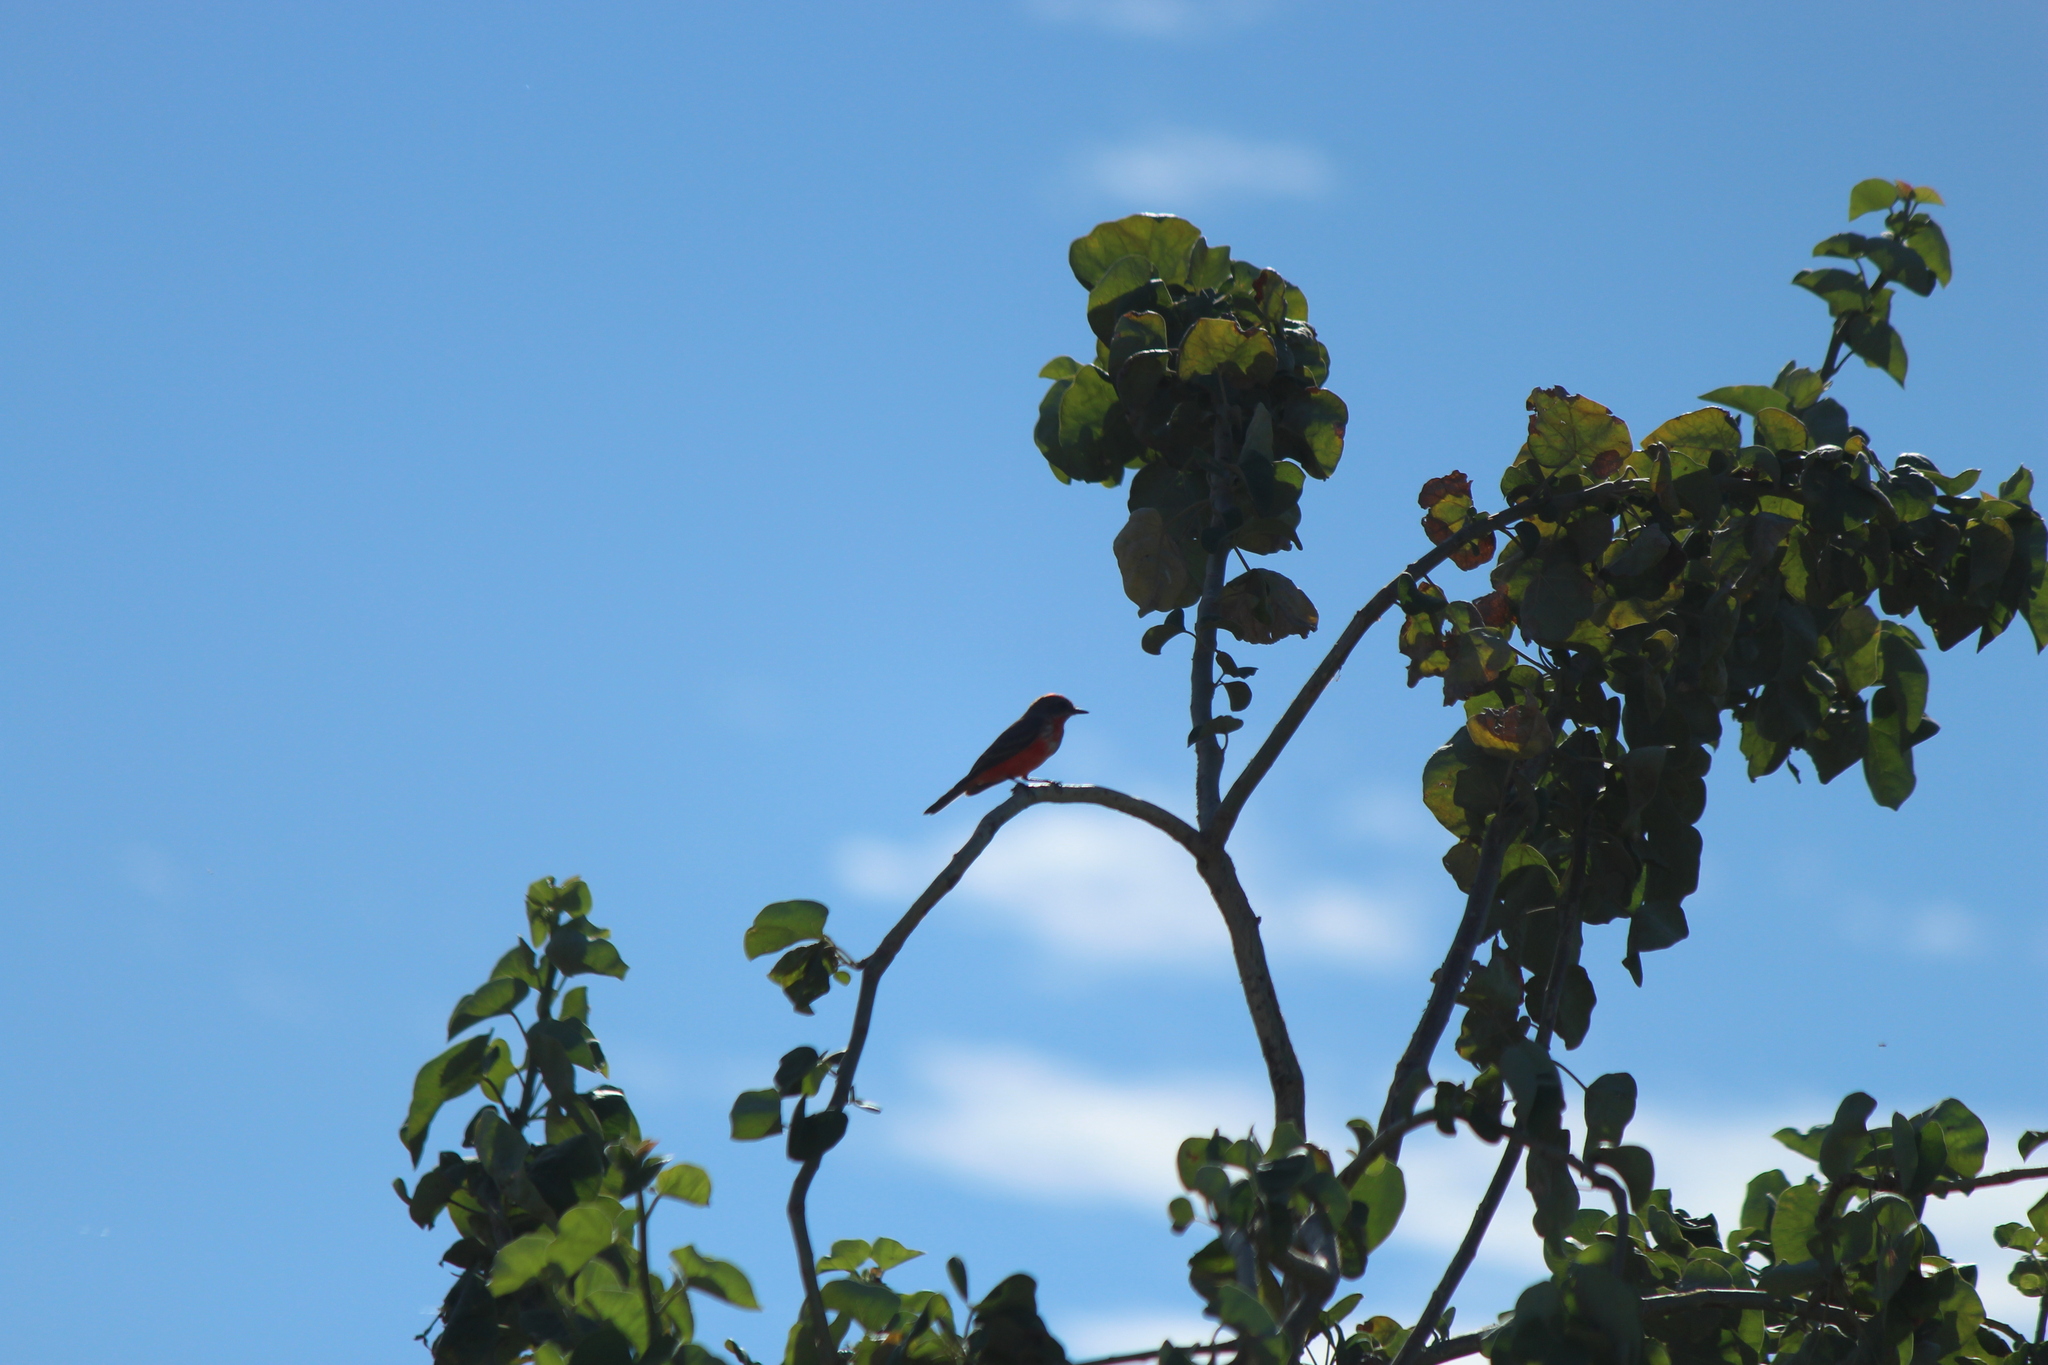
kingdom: Animalia
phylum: Chordata
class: Aves
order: Passeriformes
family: Tyrannidae
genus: Pyrocephalus
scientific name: Pyrocephalus rubinus
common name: Vermilion flycatcher
